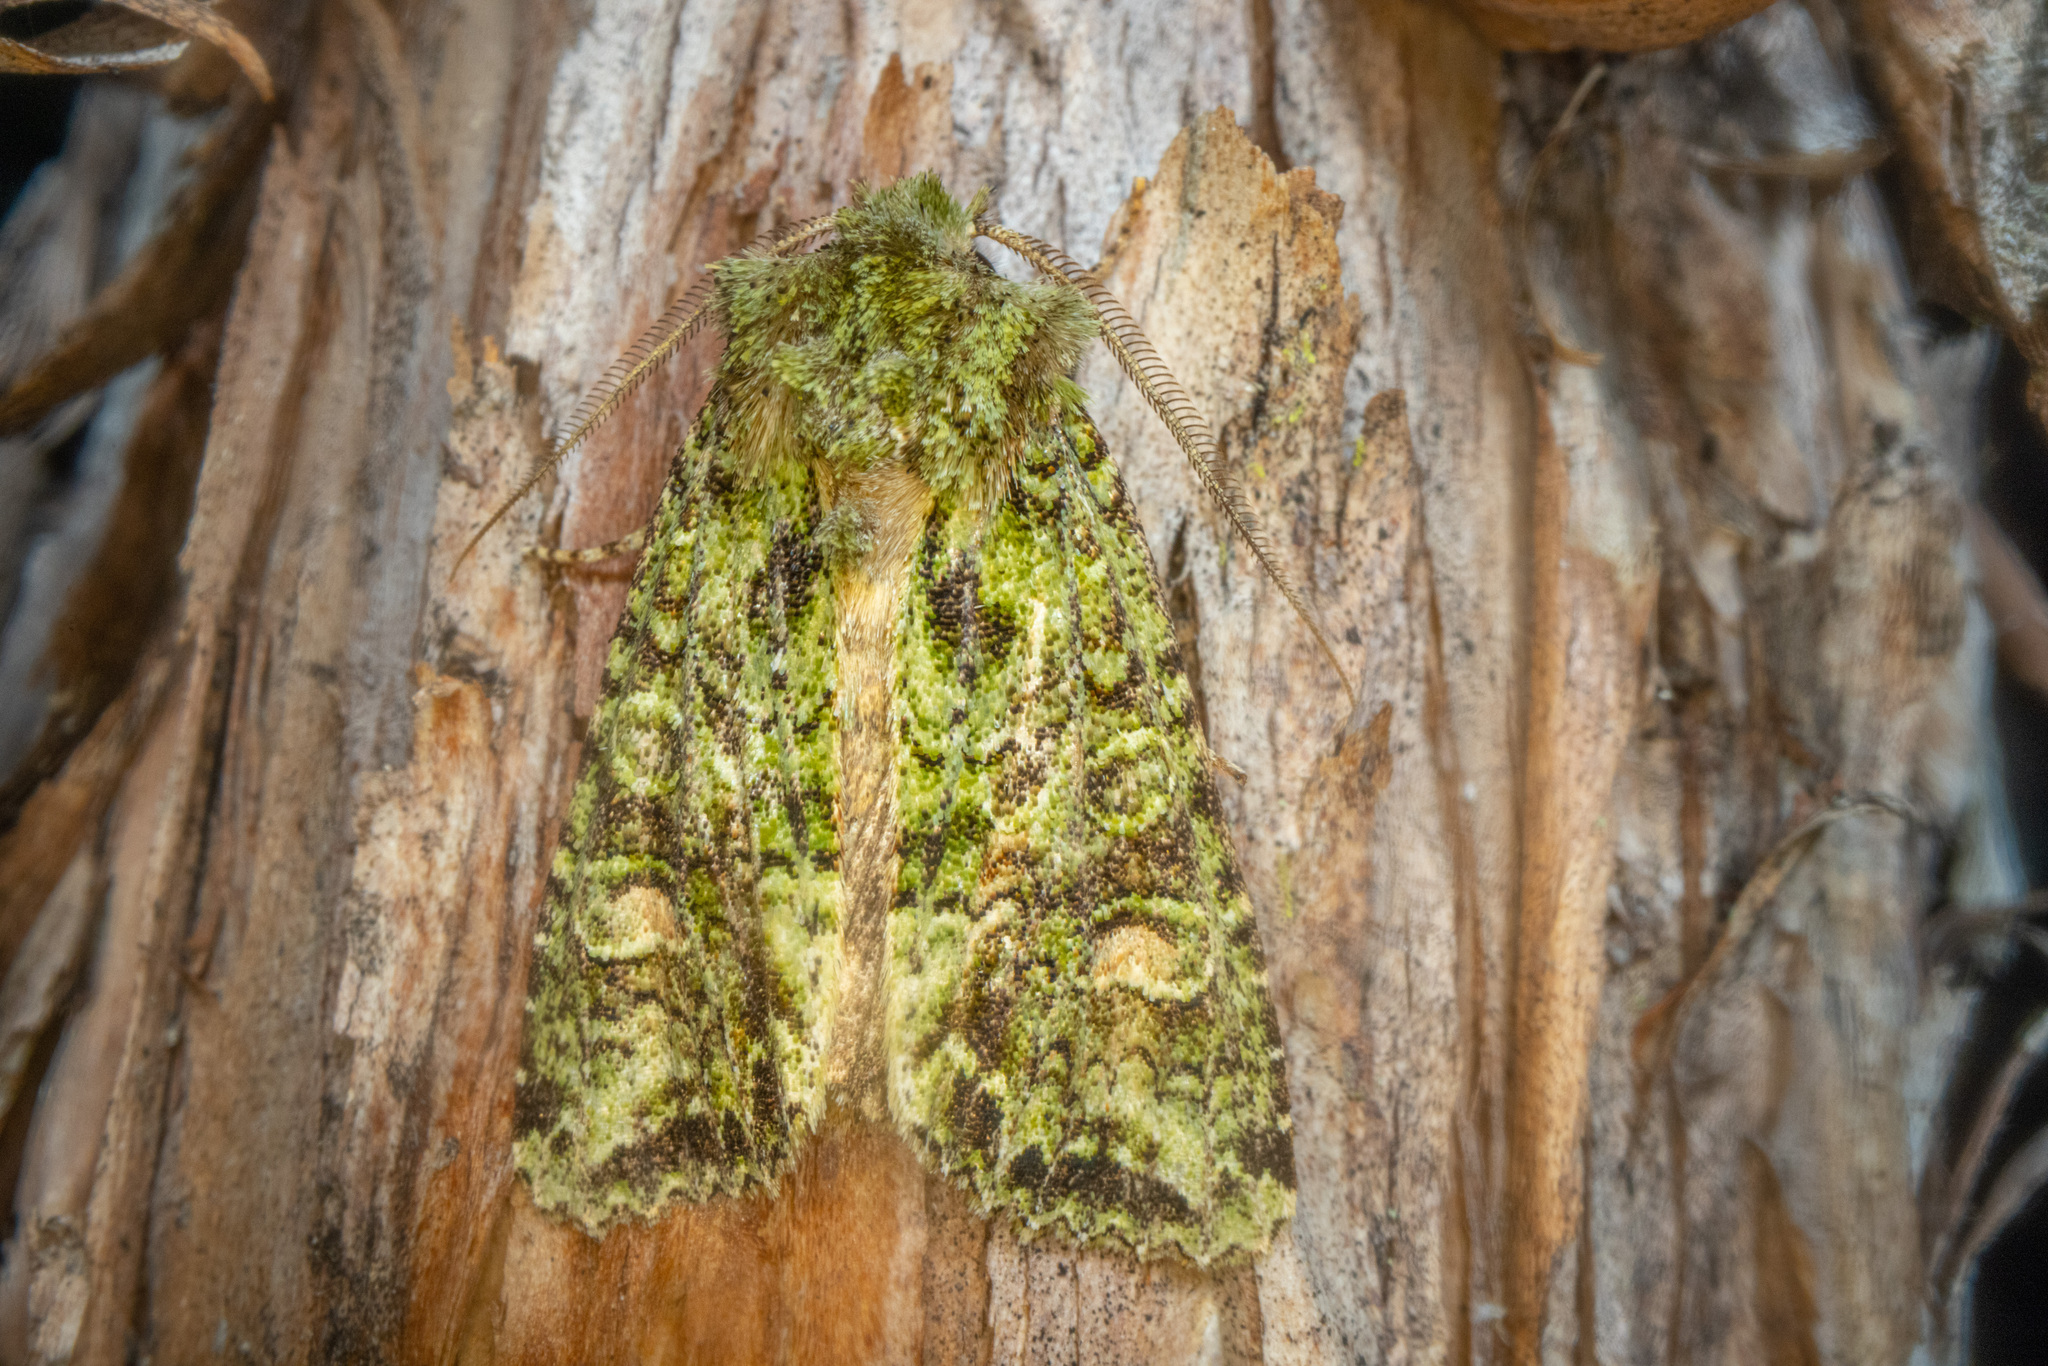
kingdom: Animalia
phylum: Arthropoda
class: Insecta
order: Lepidoptera
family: Noctuidae
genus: Ichneutica
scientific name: Ichneutica
